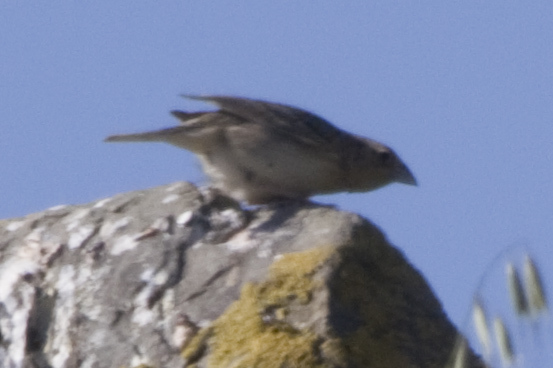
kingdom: Animalia
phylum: Chordata
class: Aves
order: Passeriformes
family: Passerellidae
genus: Ammodramus
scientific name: Ammodramus savannarum
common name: Grasshopper sparrow
